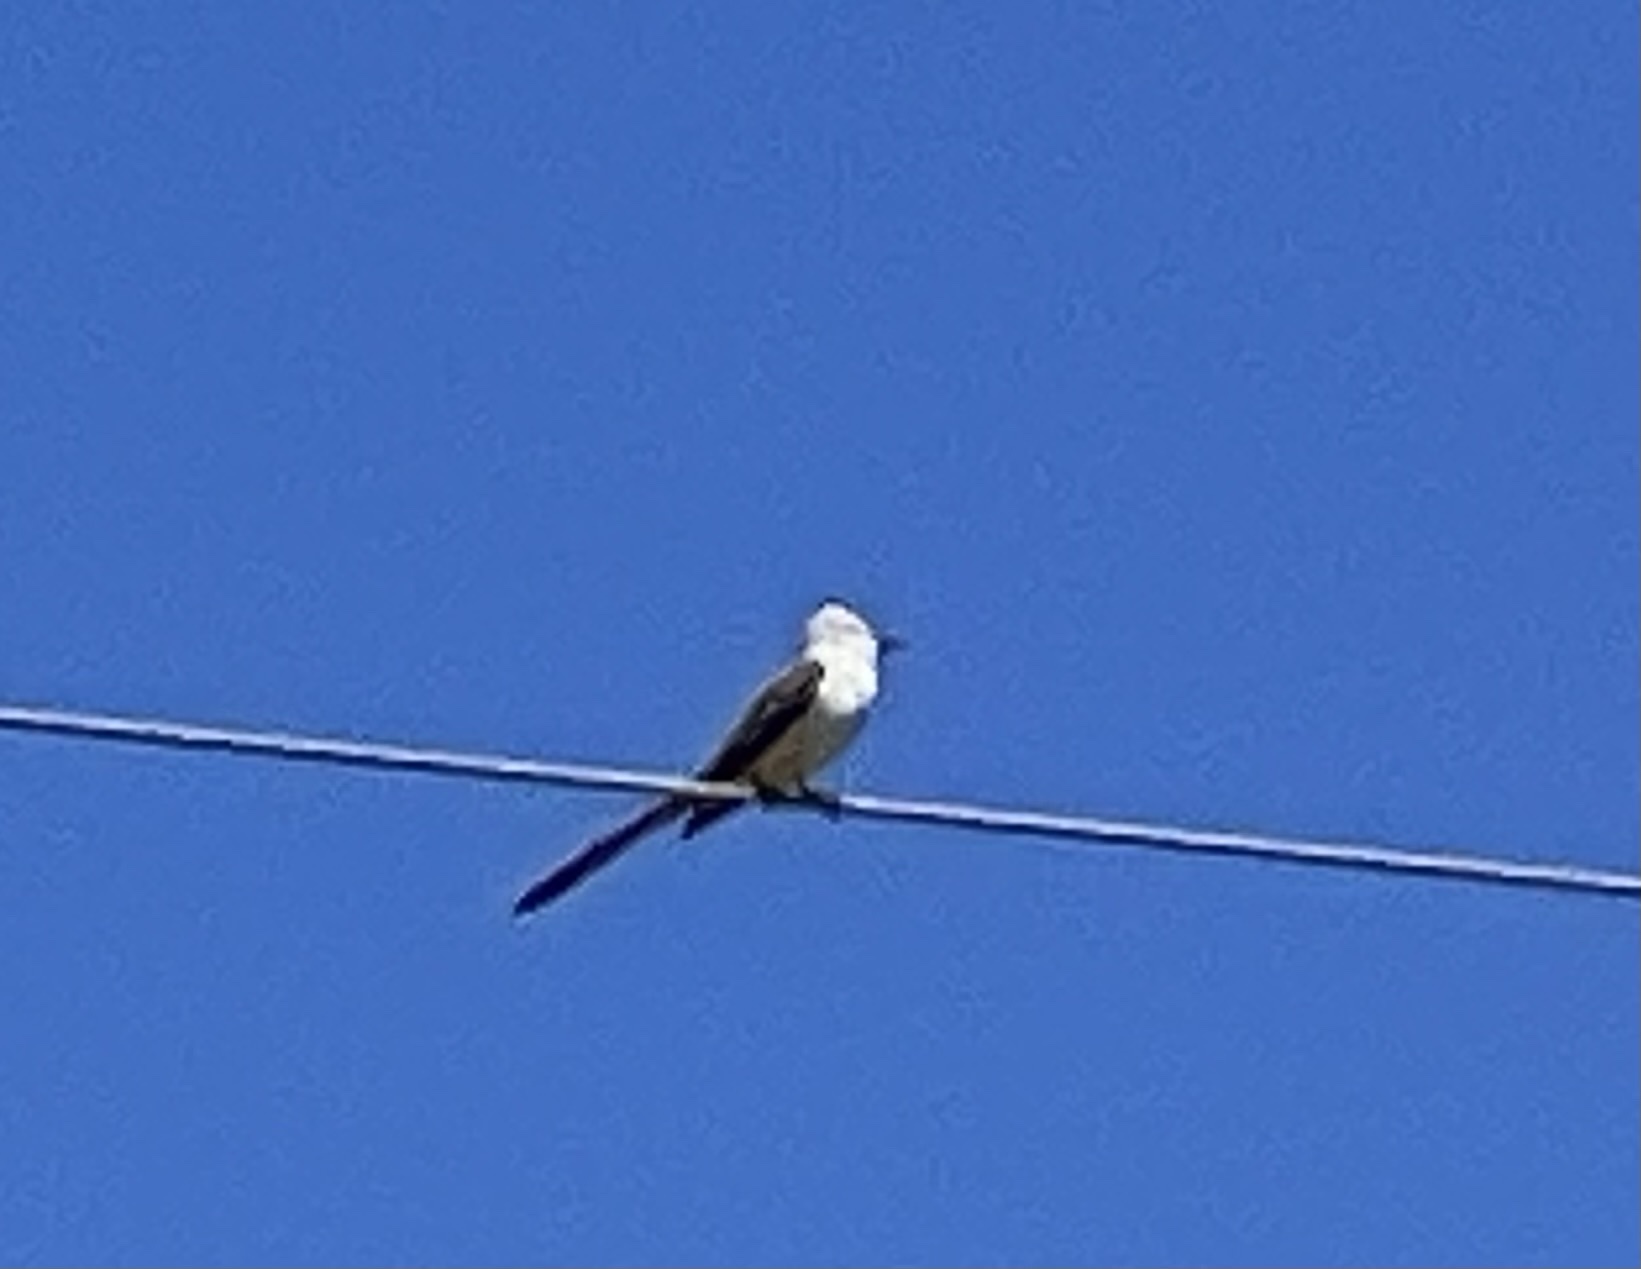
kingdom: Animalia
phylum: Chordata
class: Aves
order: Passeriformes
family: Tyrannidae
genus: Tyrannus
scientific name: Tyrannus forficatus
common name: Scissor-tailed flycatcher
